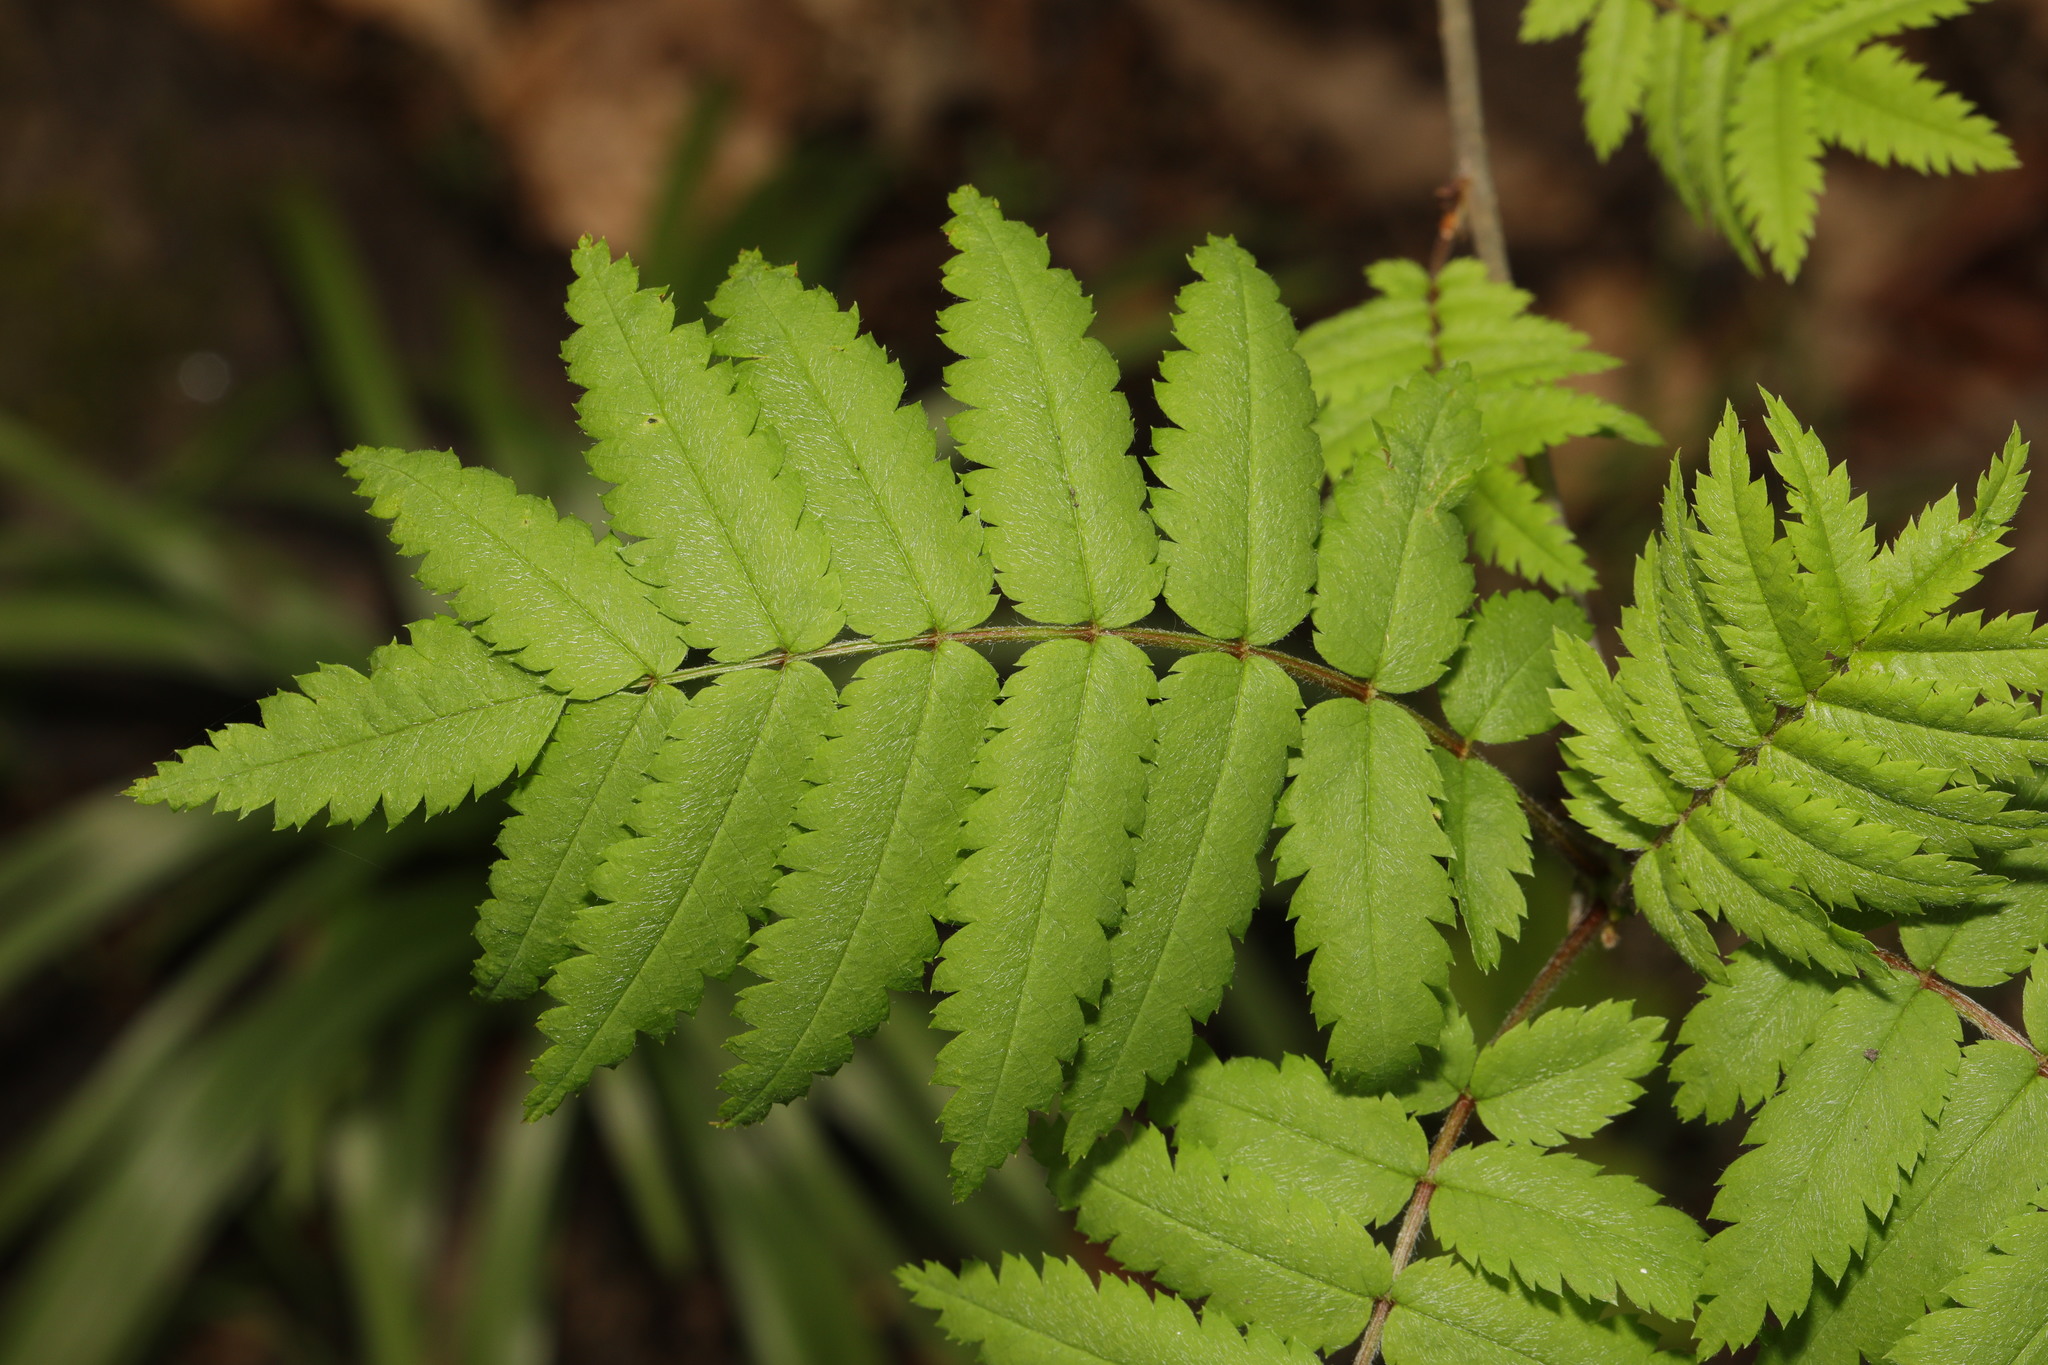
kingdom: Plantae
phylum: Tracheophyta
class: Magnoliopsida
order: Rosales
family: Rosaceae
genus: Sorbus
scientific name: Sorbus aucuparia
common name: Rowan
